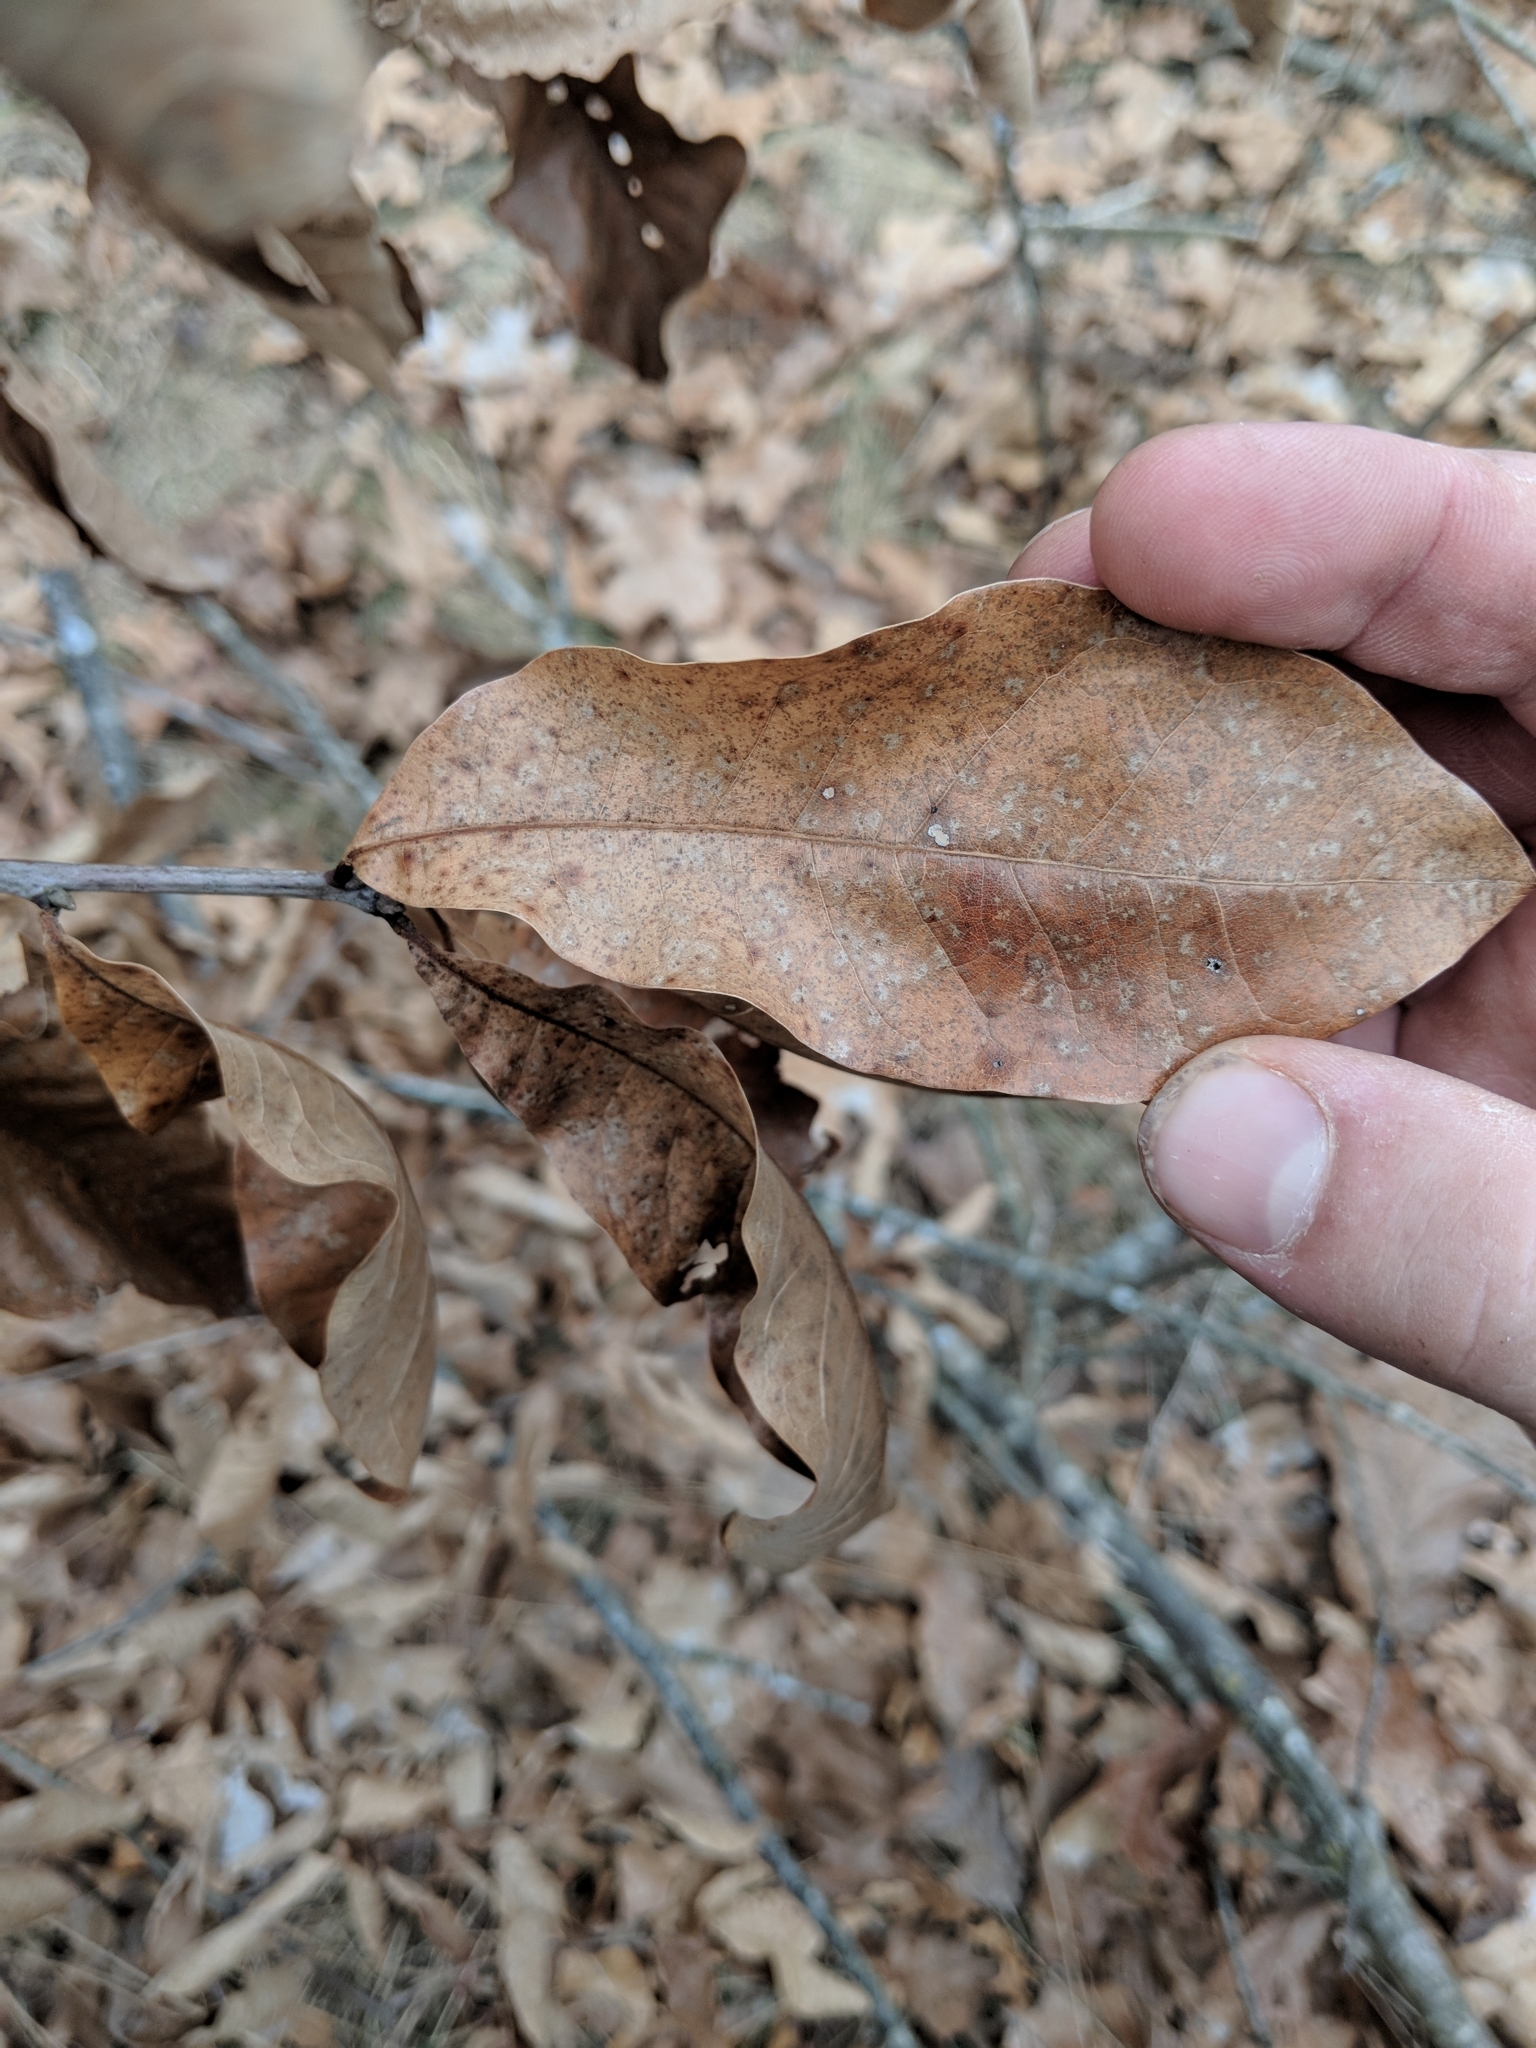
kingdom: Plantae
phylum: Tracheophyta
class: Magnoliopsida
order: Fagales
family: Fagaceae
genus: Quercus
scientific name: Quercus imbricaria
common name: Shingle oak
